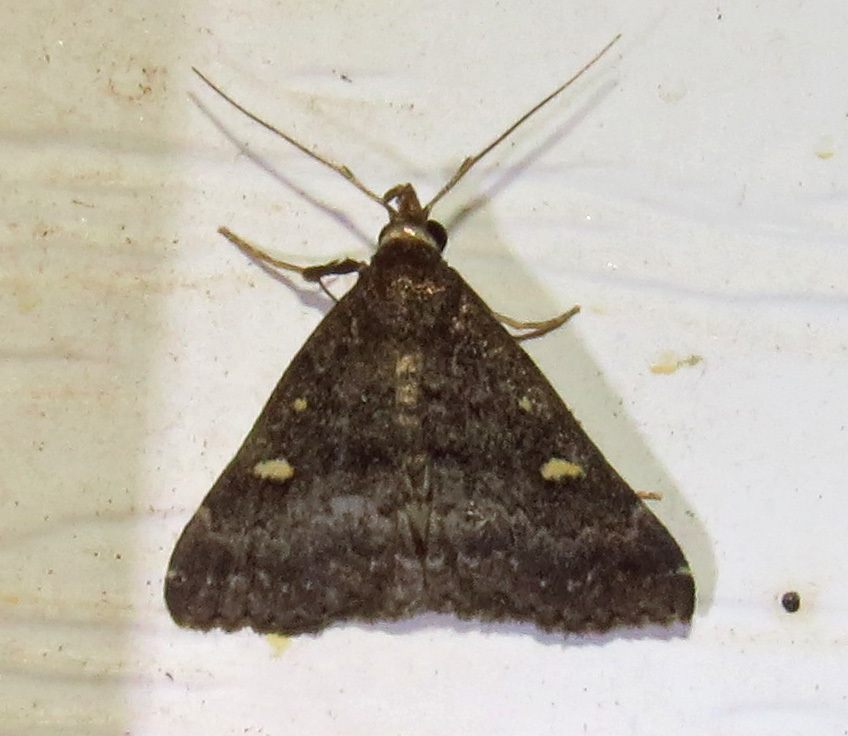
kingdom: Animalia
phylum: Arthropoda
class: Insecta
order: Lepidoptera
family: Erebidae
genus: Tetanolita
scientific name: Tetanolita mynesalis
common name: Smoky tetanolita moth
